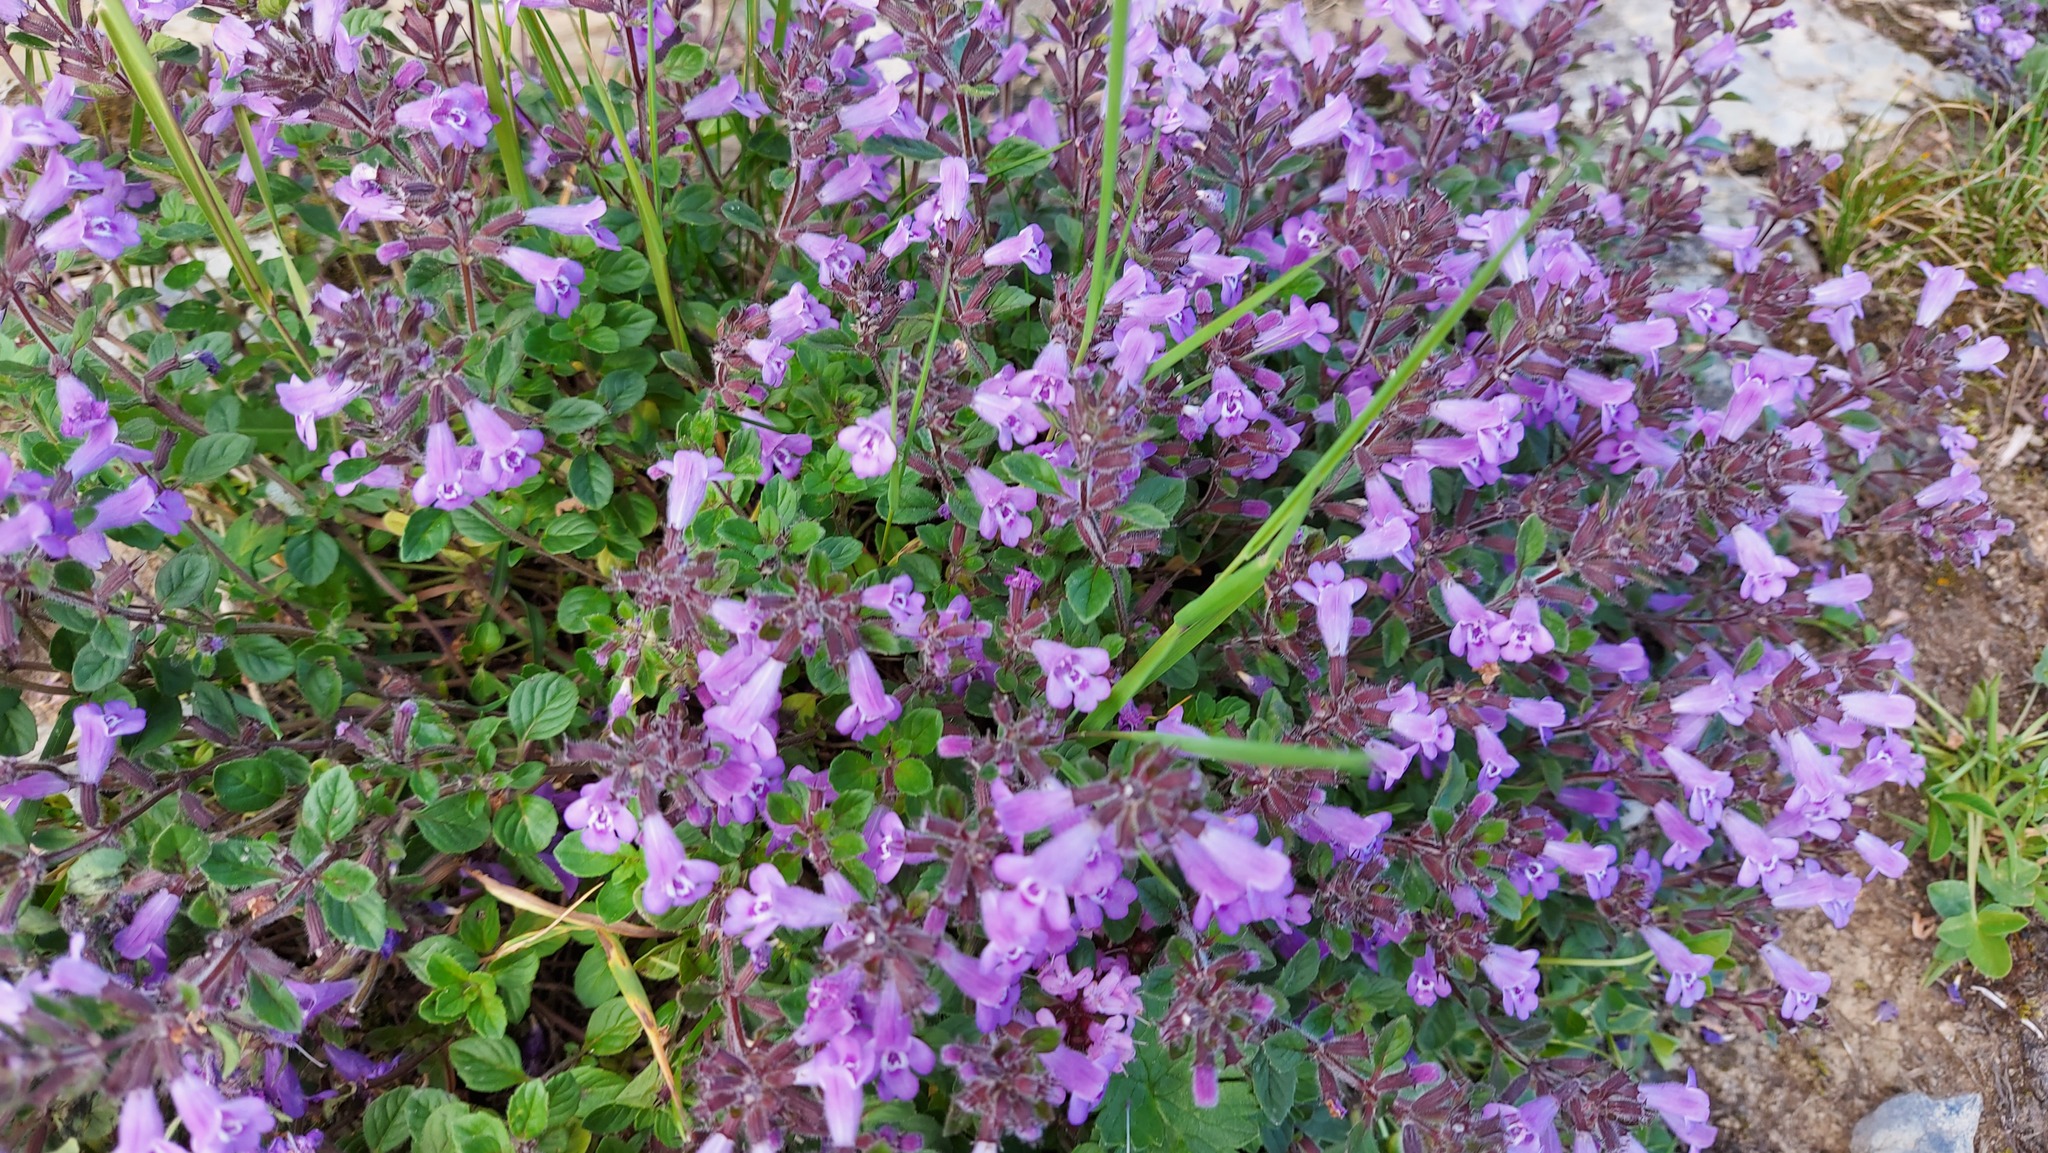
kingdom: Plantae
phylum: Tracheophyta
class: Magnoliopsida
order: Lamiales
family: Lamiaceae
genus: Clinopodium
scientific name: Clinopodium alpinum
